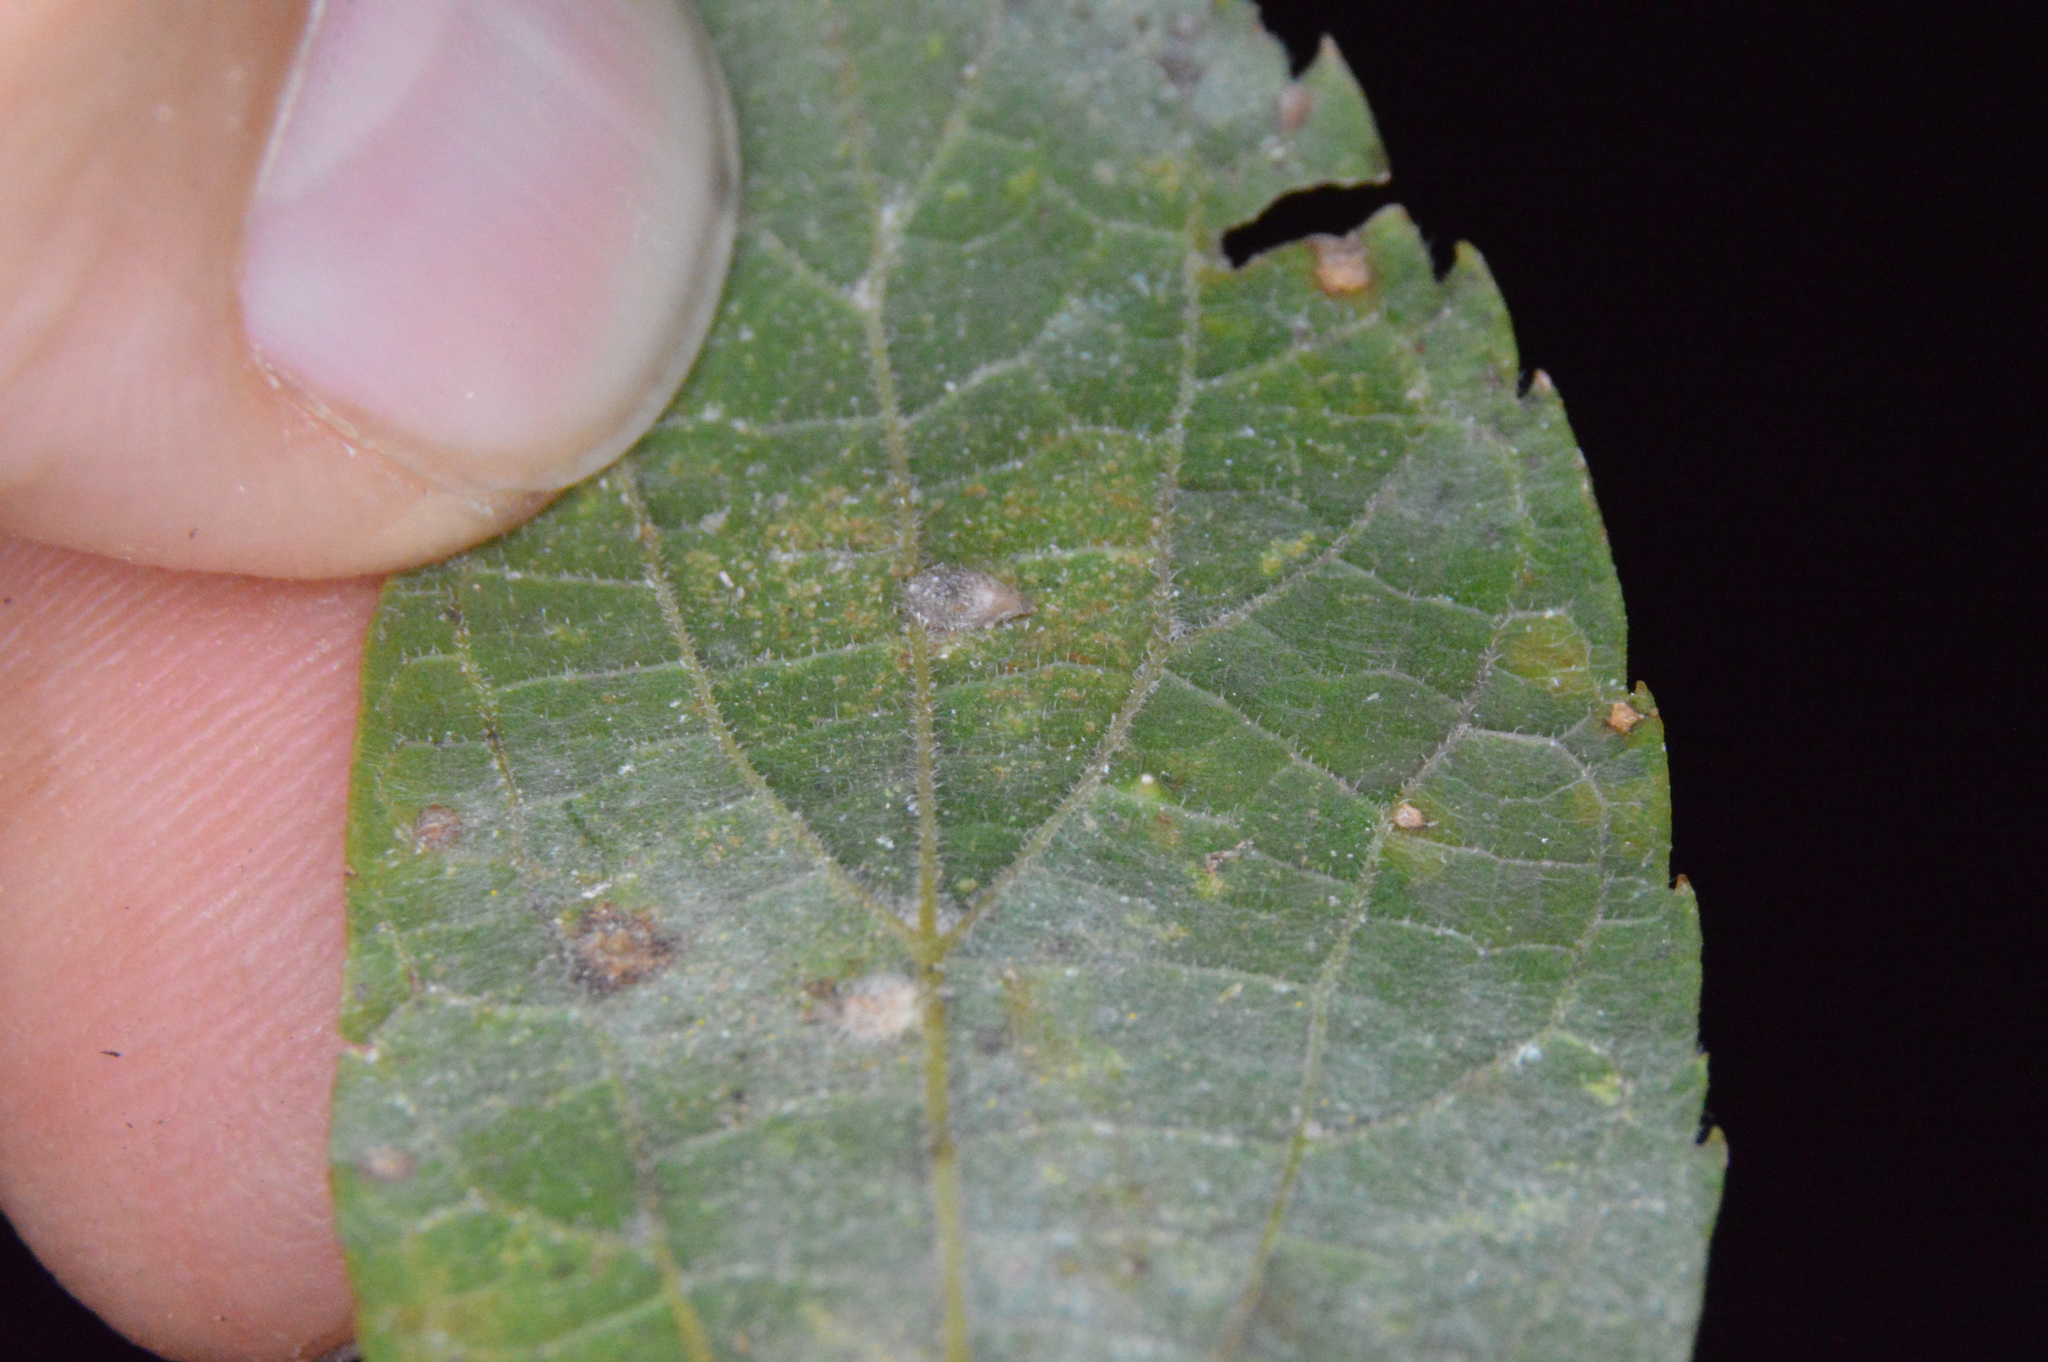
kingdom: Animalia
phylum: Arthropoda
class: Insecta
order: Diptera
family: Cecidomyiidae
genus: Celticecis
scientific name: Celticecis supina
